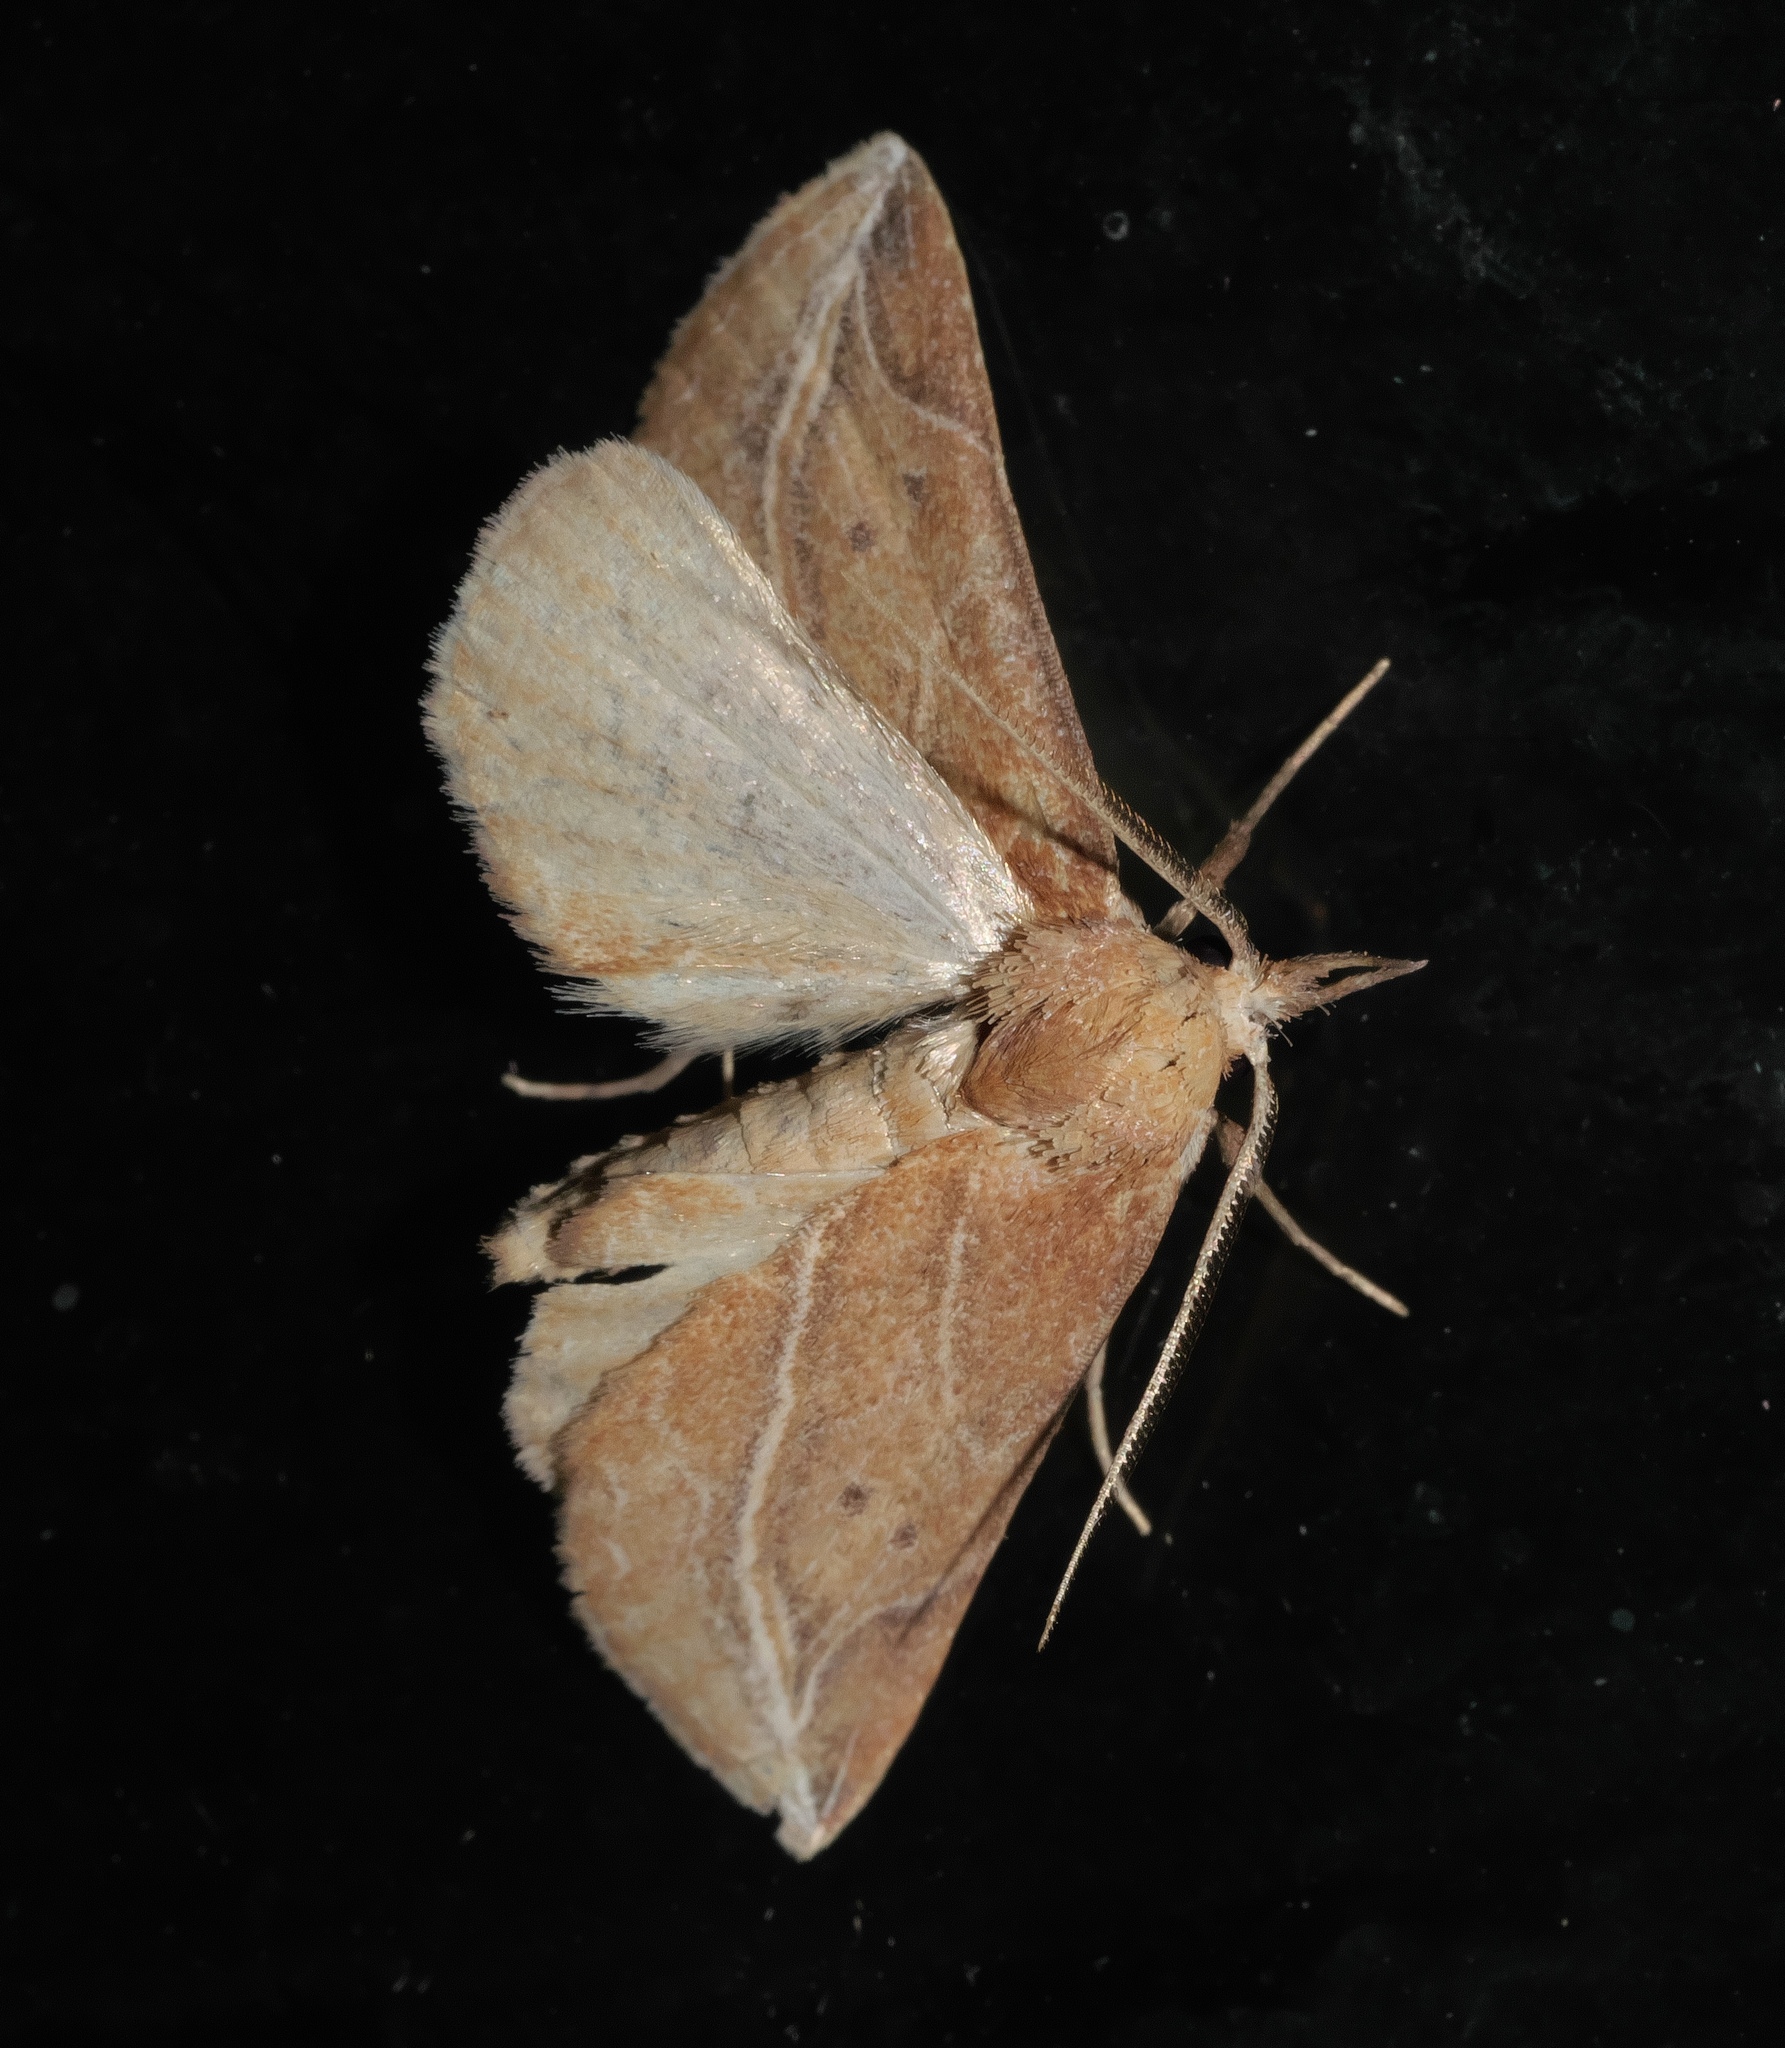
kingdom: Animalia
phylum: Arthropoda
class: Insecta
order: Lepidoptera
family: Erebidae
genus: Phyprosopus
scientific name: Phyprosopus callitrichoides
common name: Curved-lined owlet
